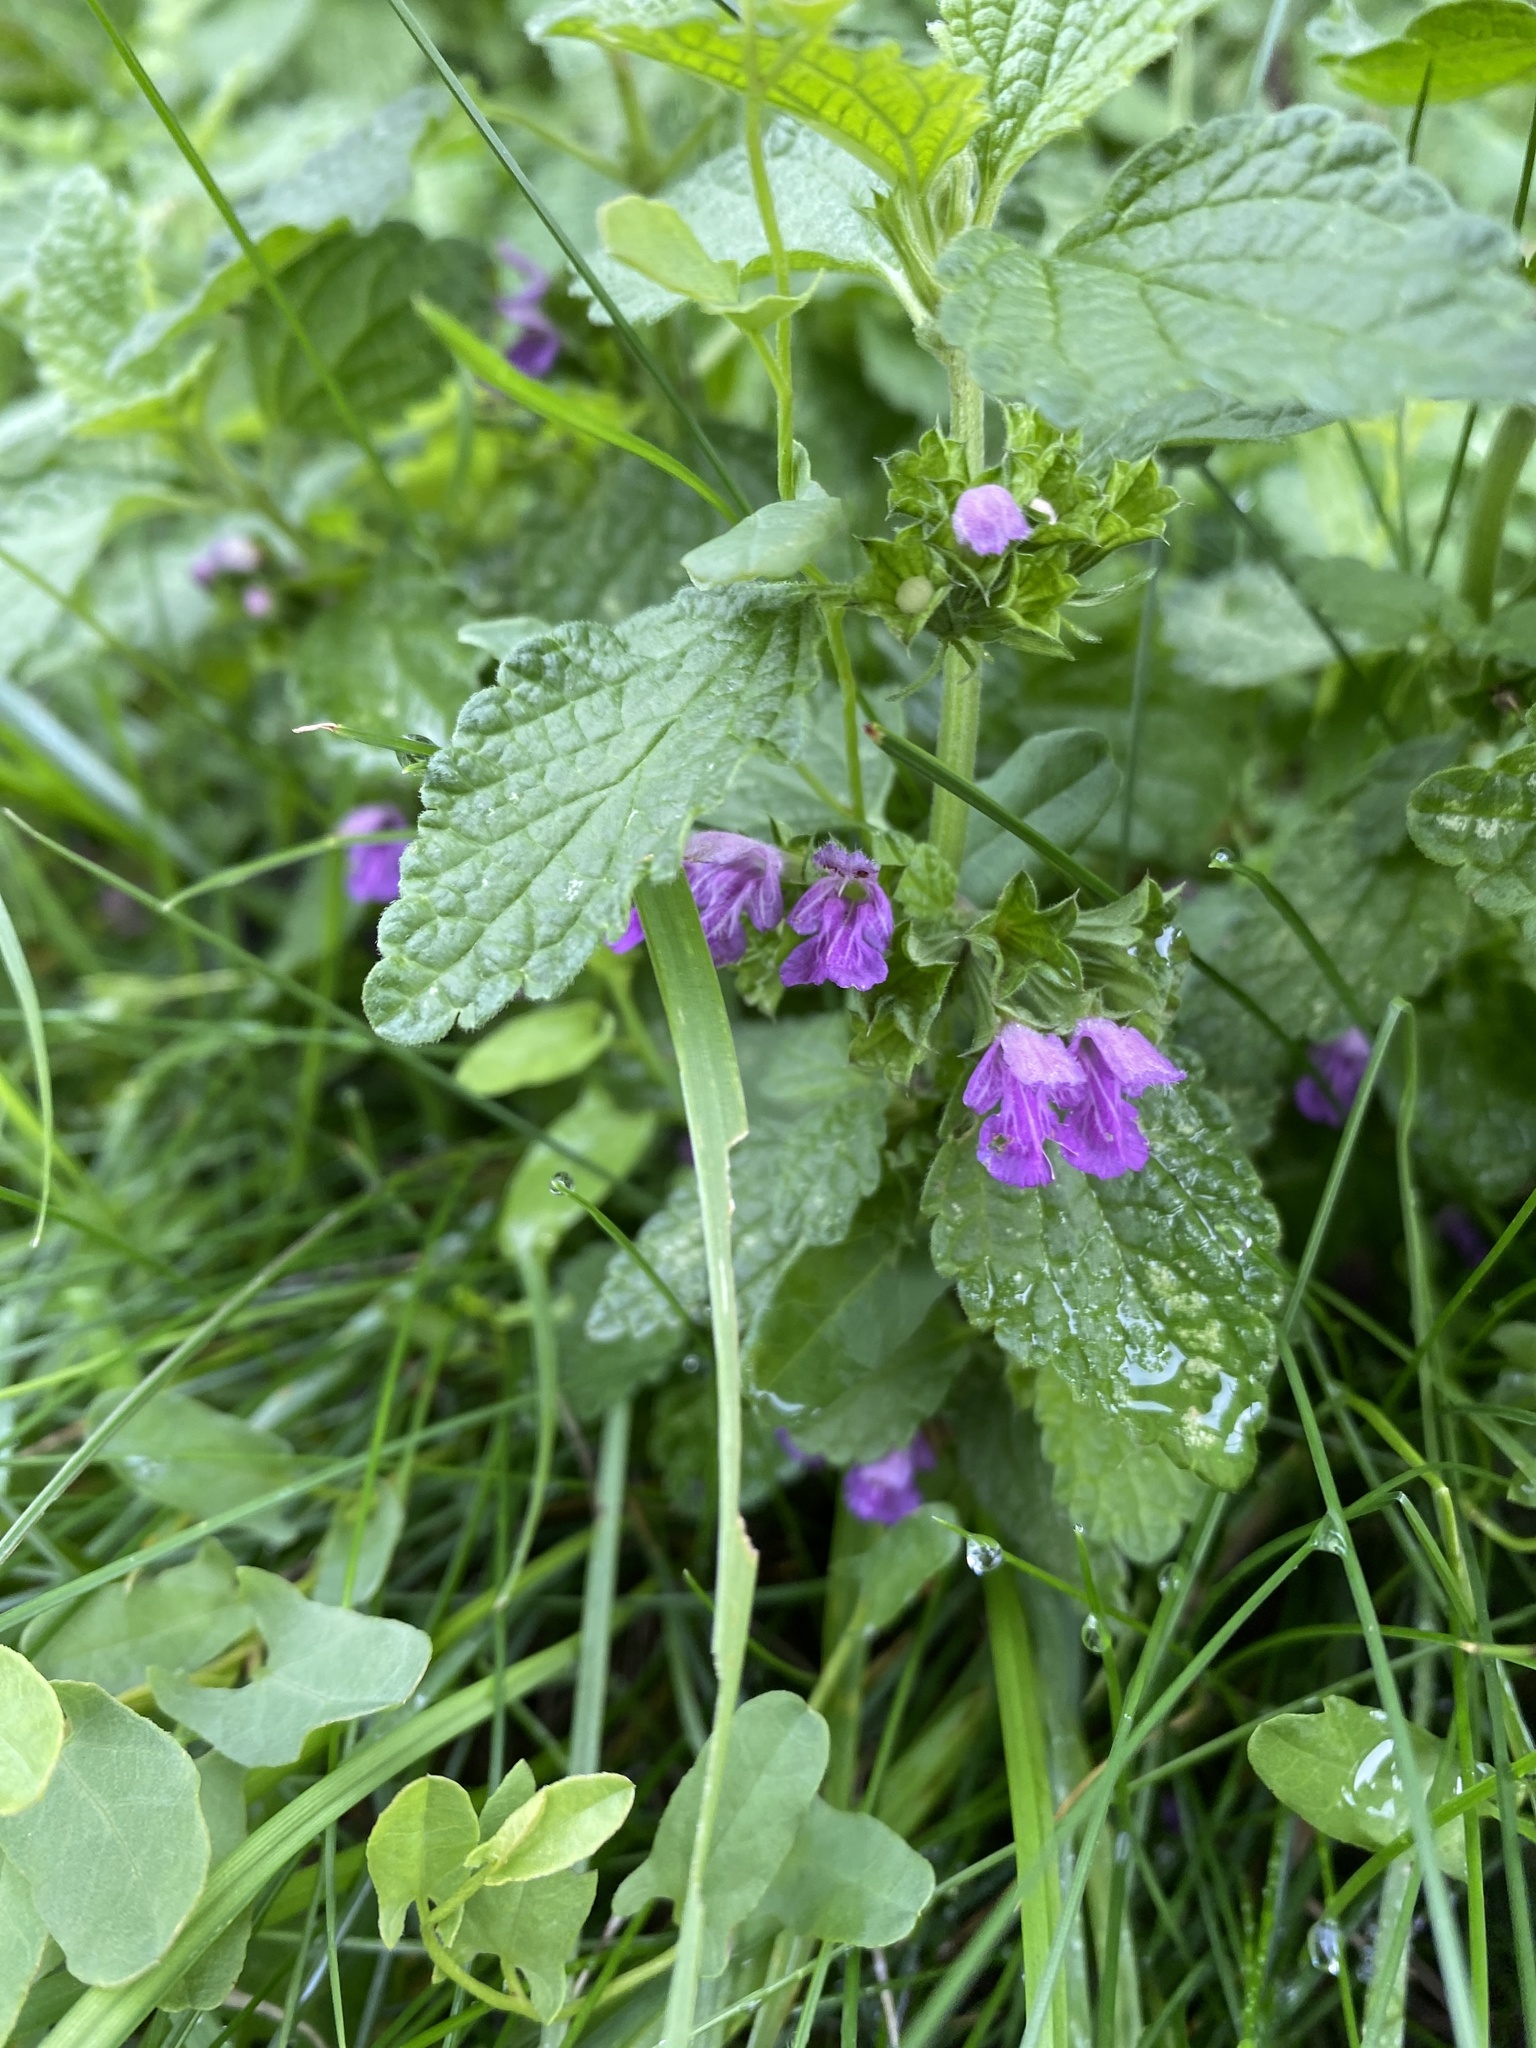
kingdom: Plantae
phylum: Tracheophyta
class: Magnoliopsida
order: Lamiales
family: Lamiaceae
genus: Ballota
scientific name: Ballota nigra
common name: Black horehound
